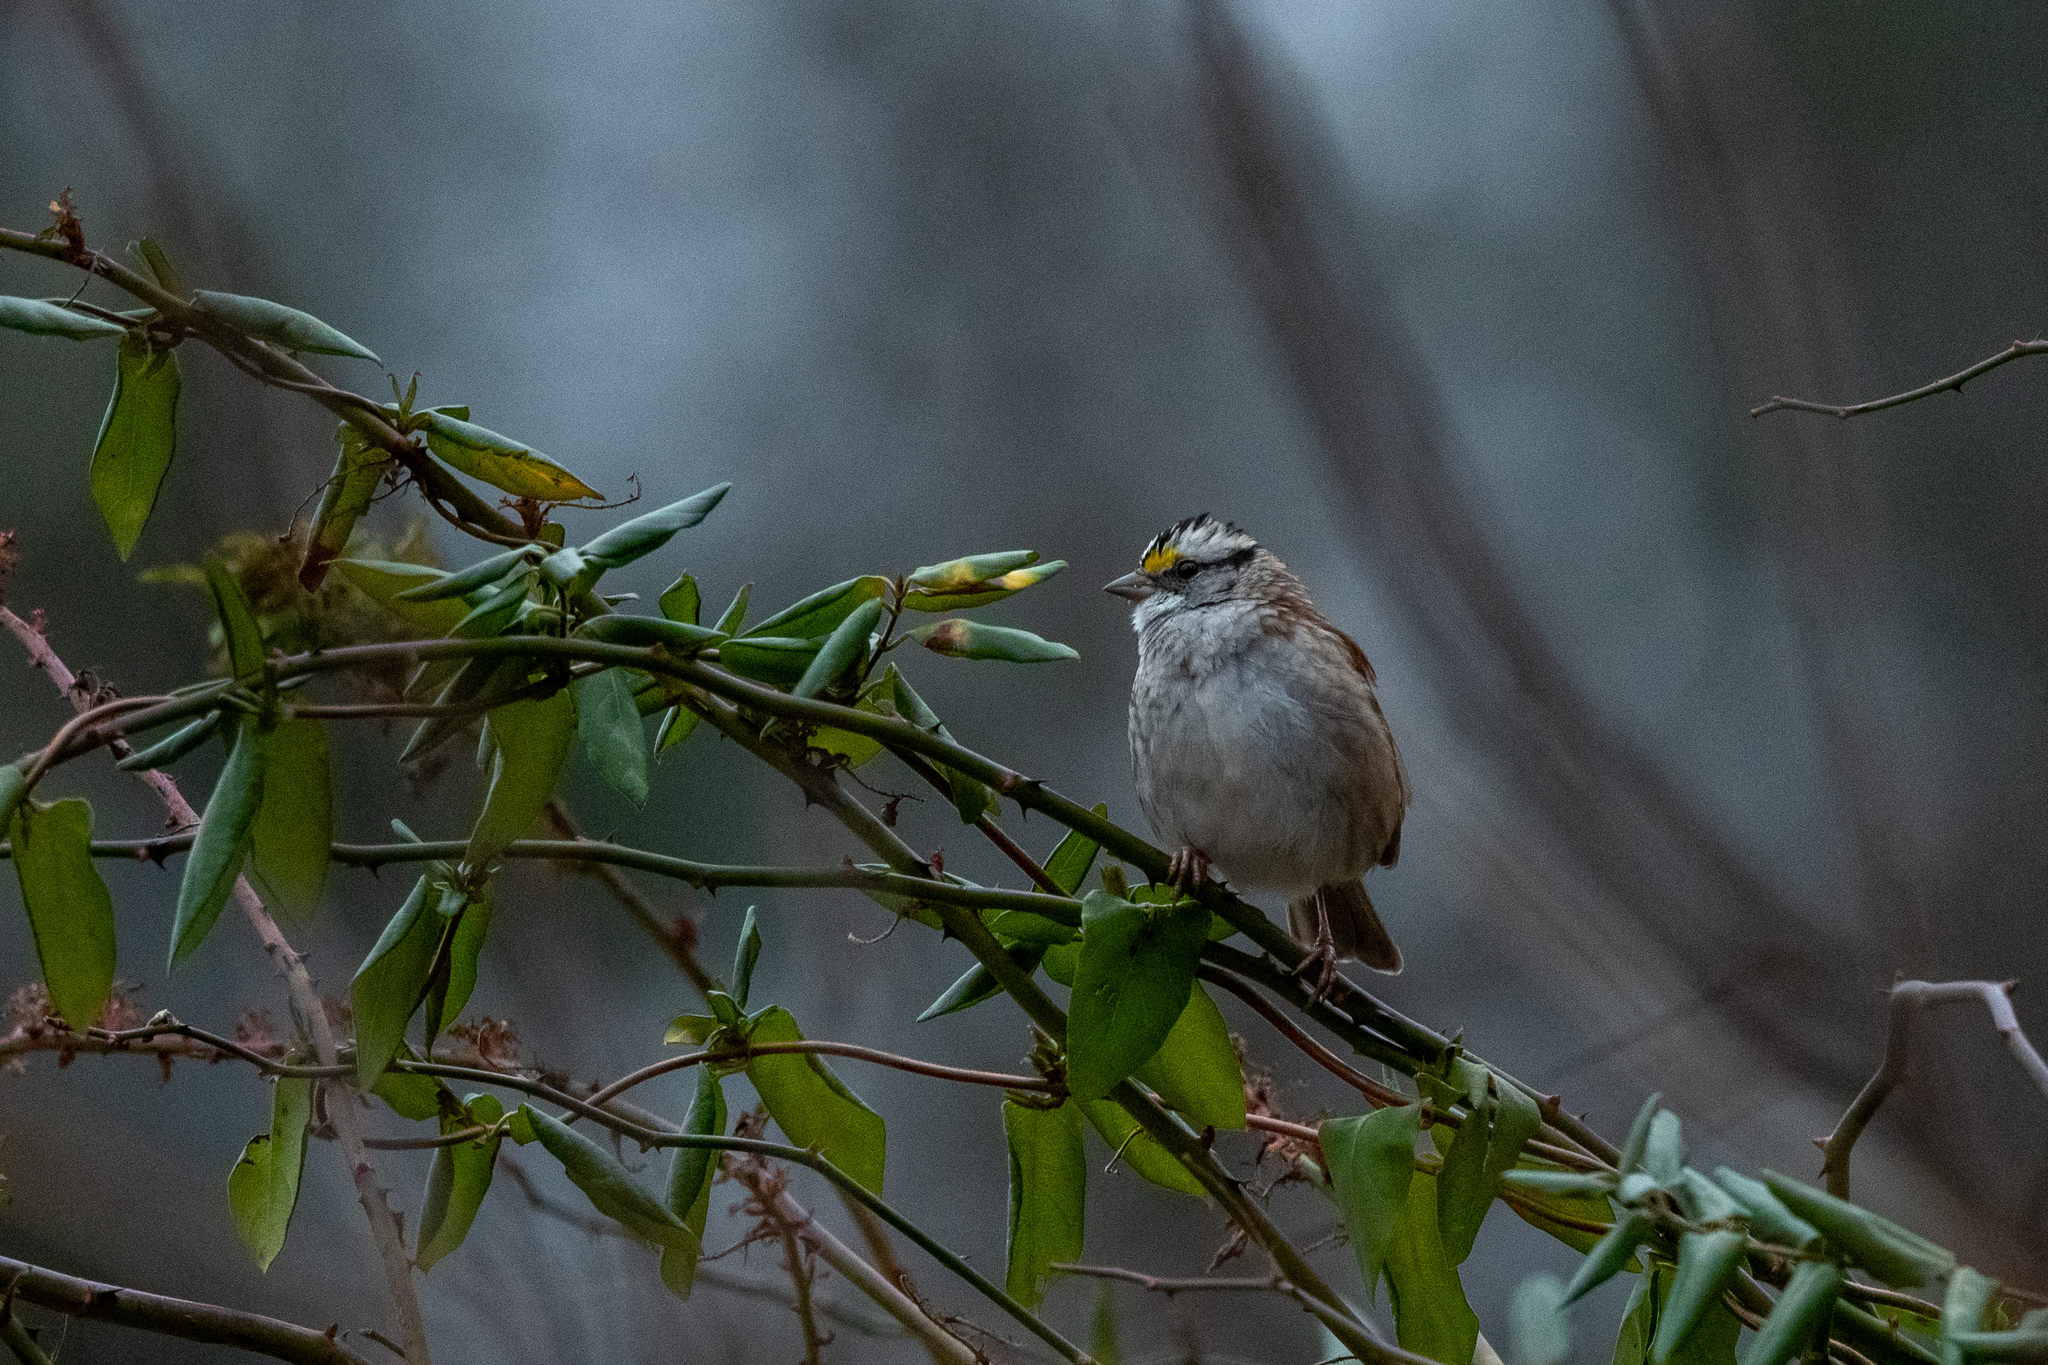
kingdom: Animalia
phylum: Chordata
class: Aves
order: Passeriformes
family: Passerellidae
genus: Zonotrichia
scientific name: Zonotrichia albicollis
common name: White-throated sparrow
